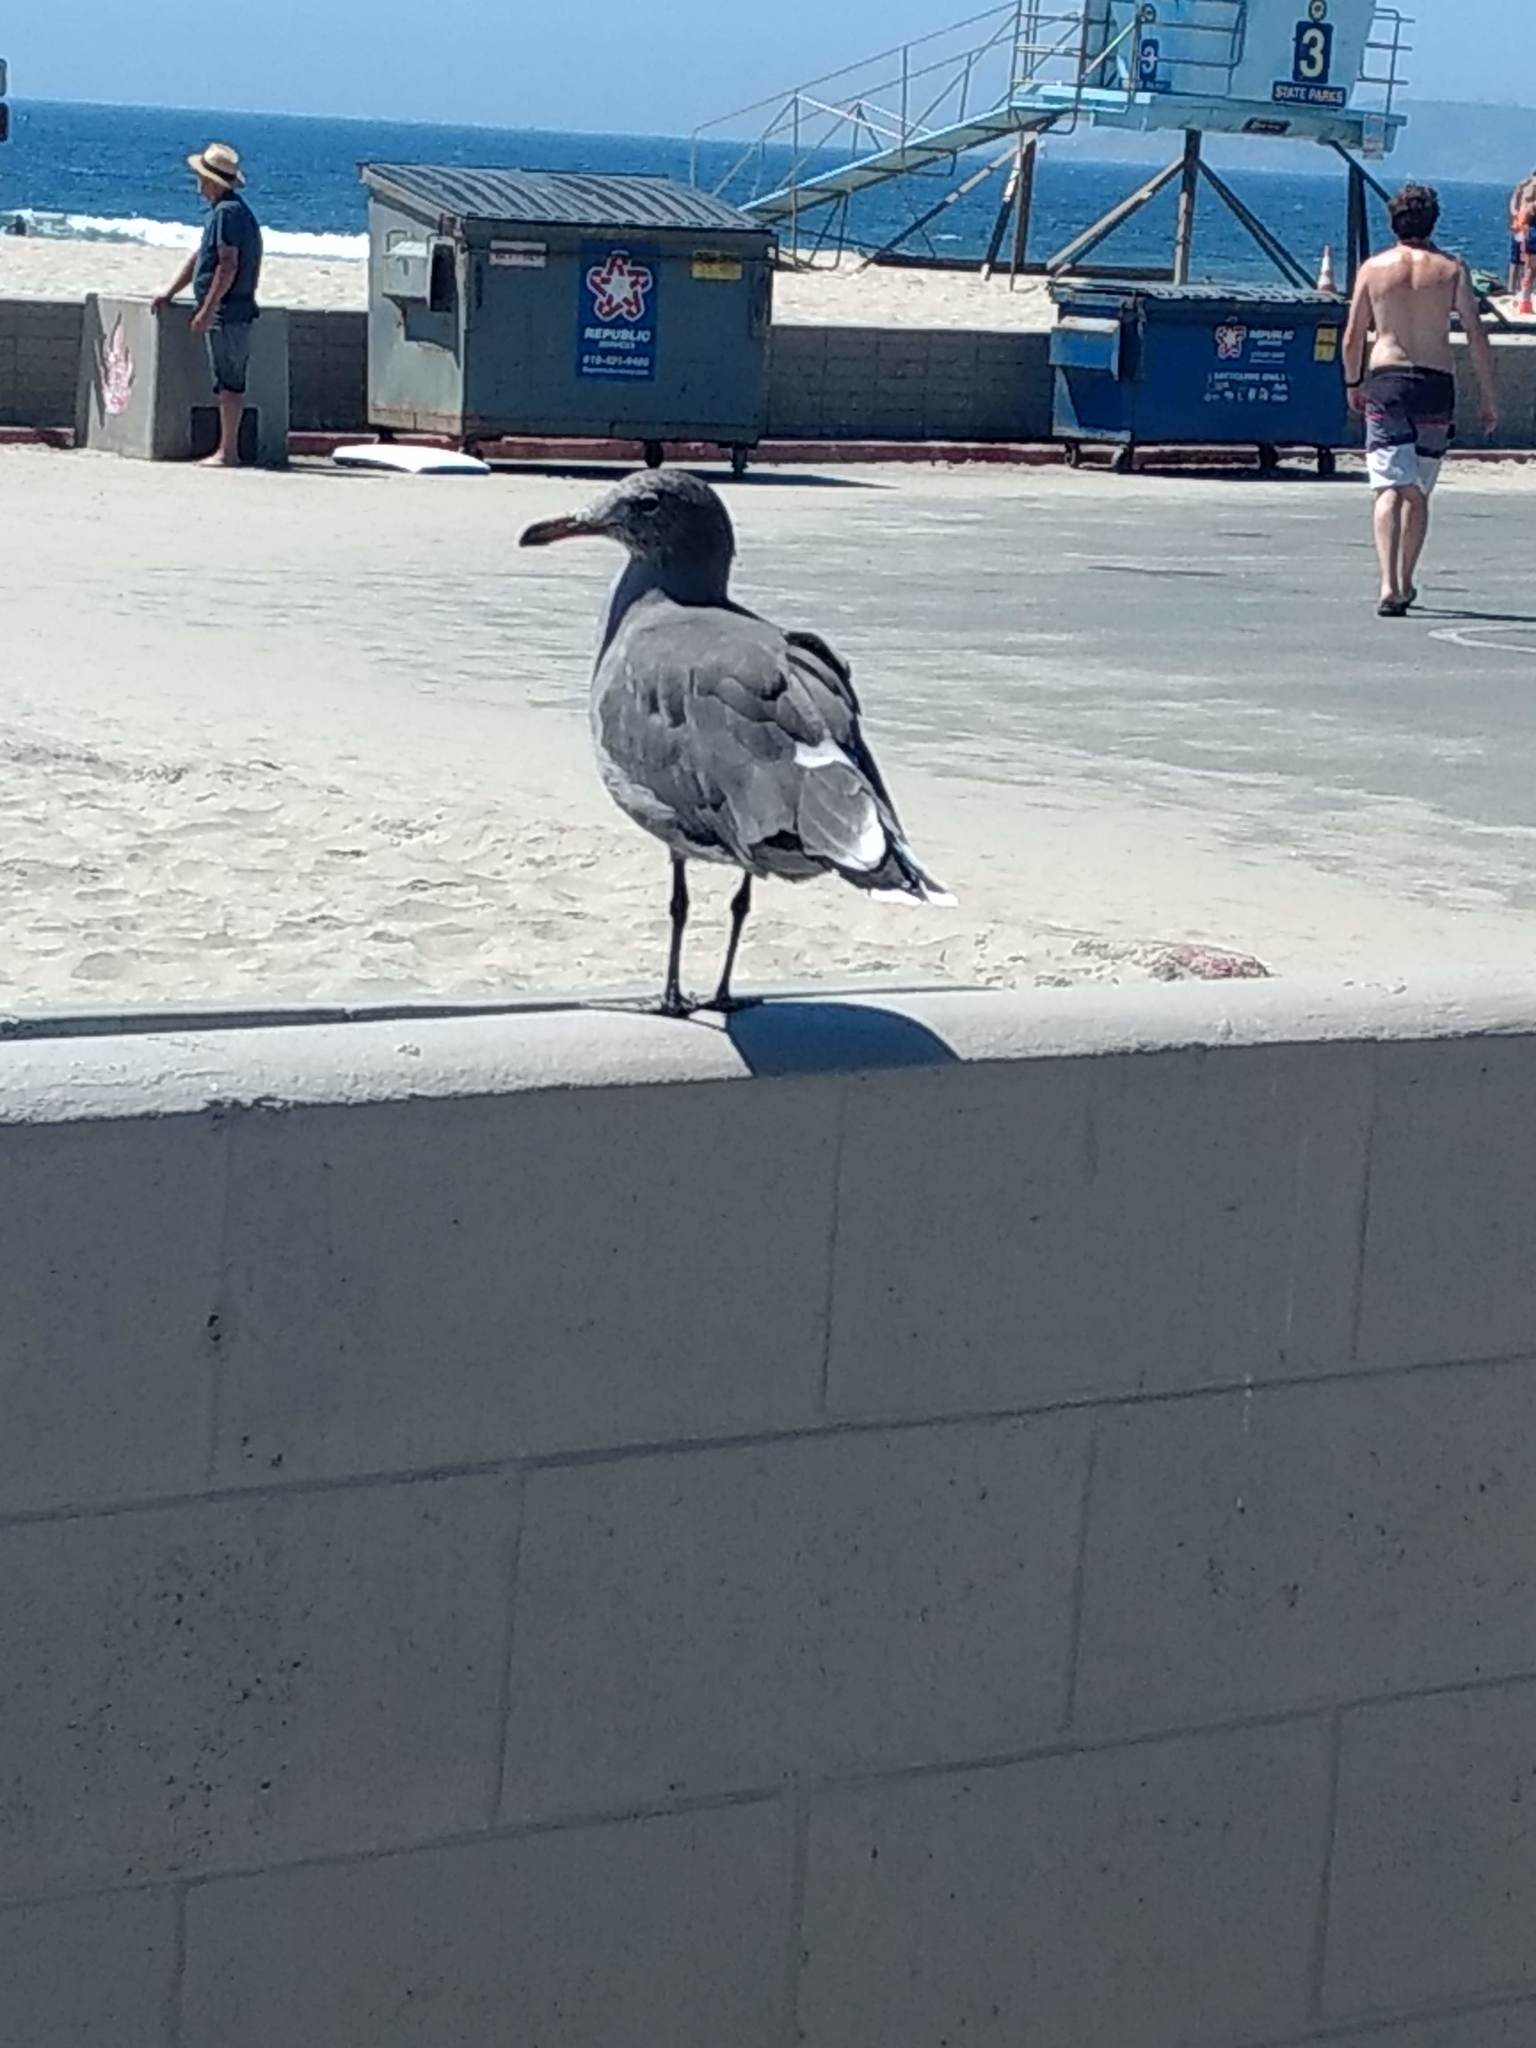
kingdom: Animalia
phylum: Chordata
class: Aves
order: Charadriiformes
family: Laridae
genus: Larus
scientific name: Larus heermanni
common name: Heermann's gull
